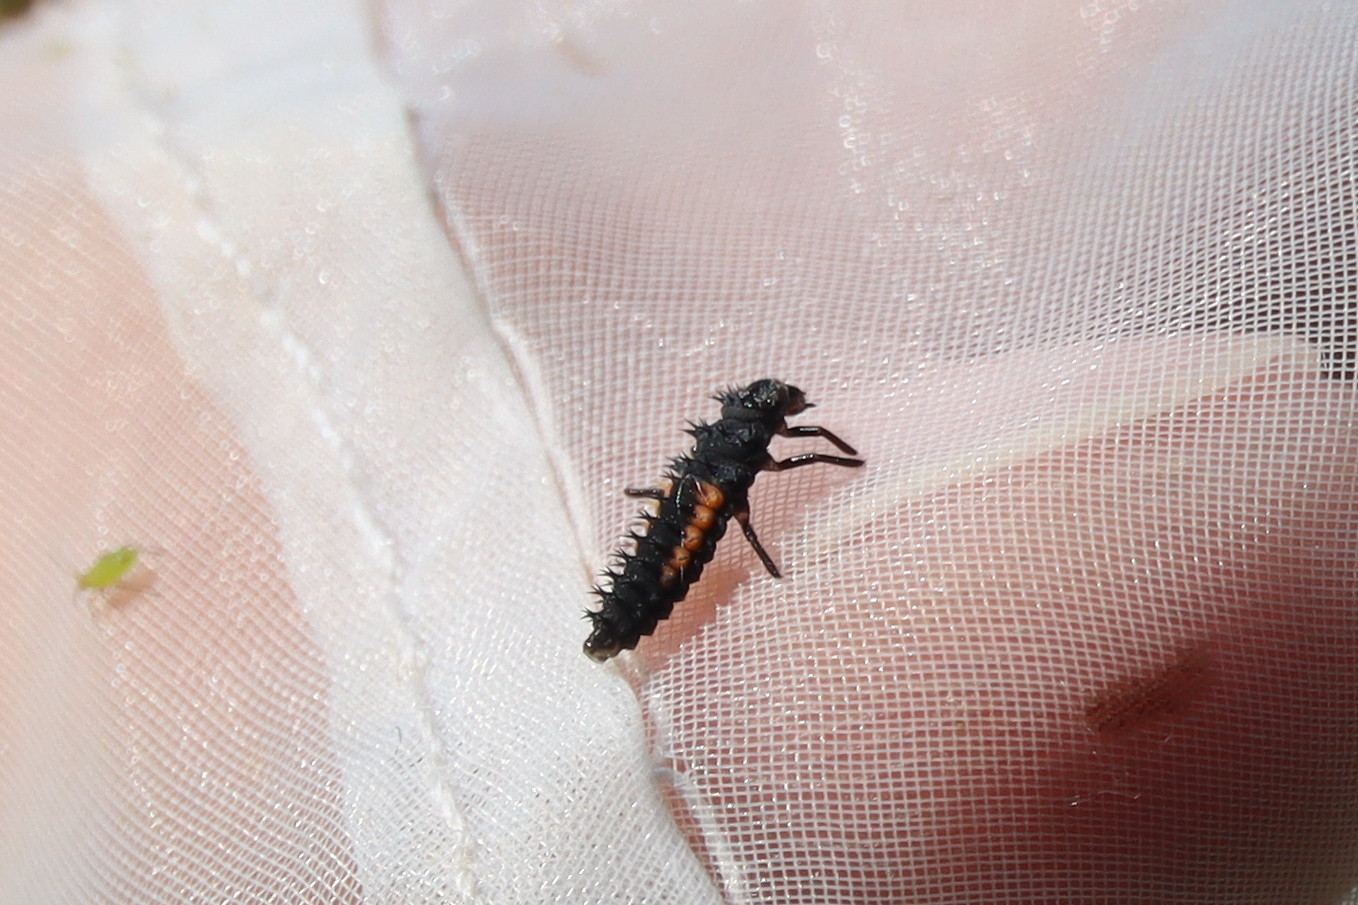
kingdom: Animalia
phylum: Arthropoda
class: Insecta
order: Coleoptera
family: Coccinellidae
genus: Harmonia
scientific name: Harmonia axyridis
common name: Harlequin ladybird
